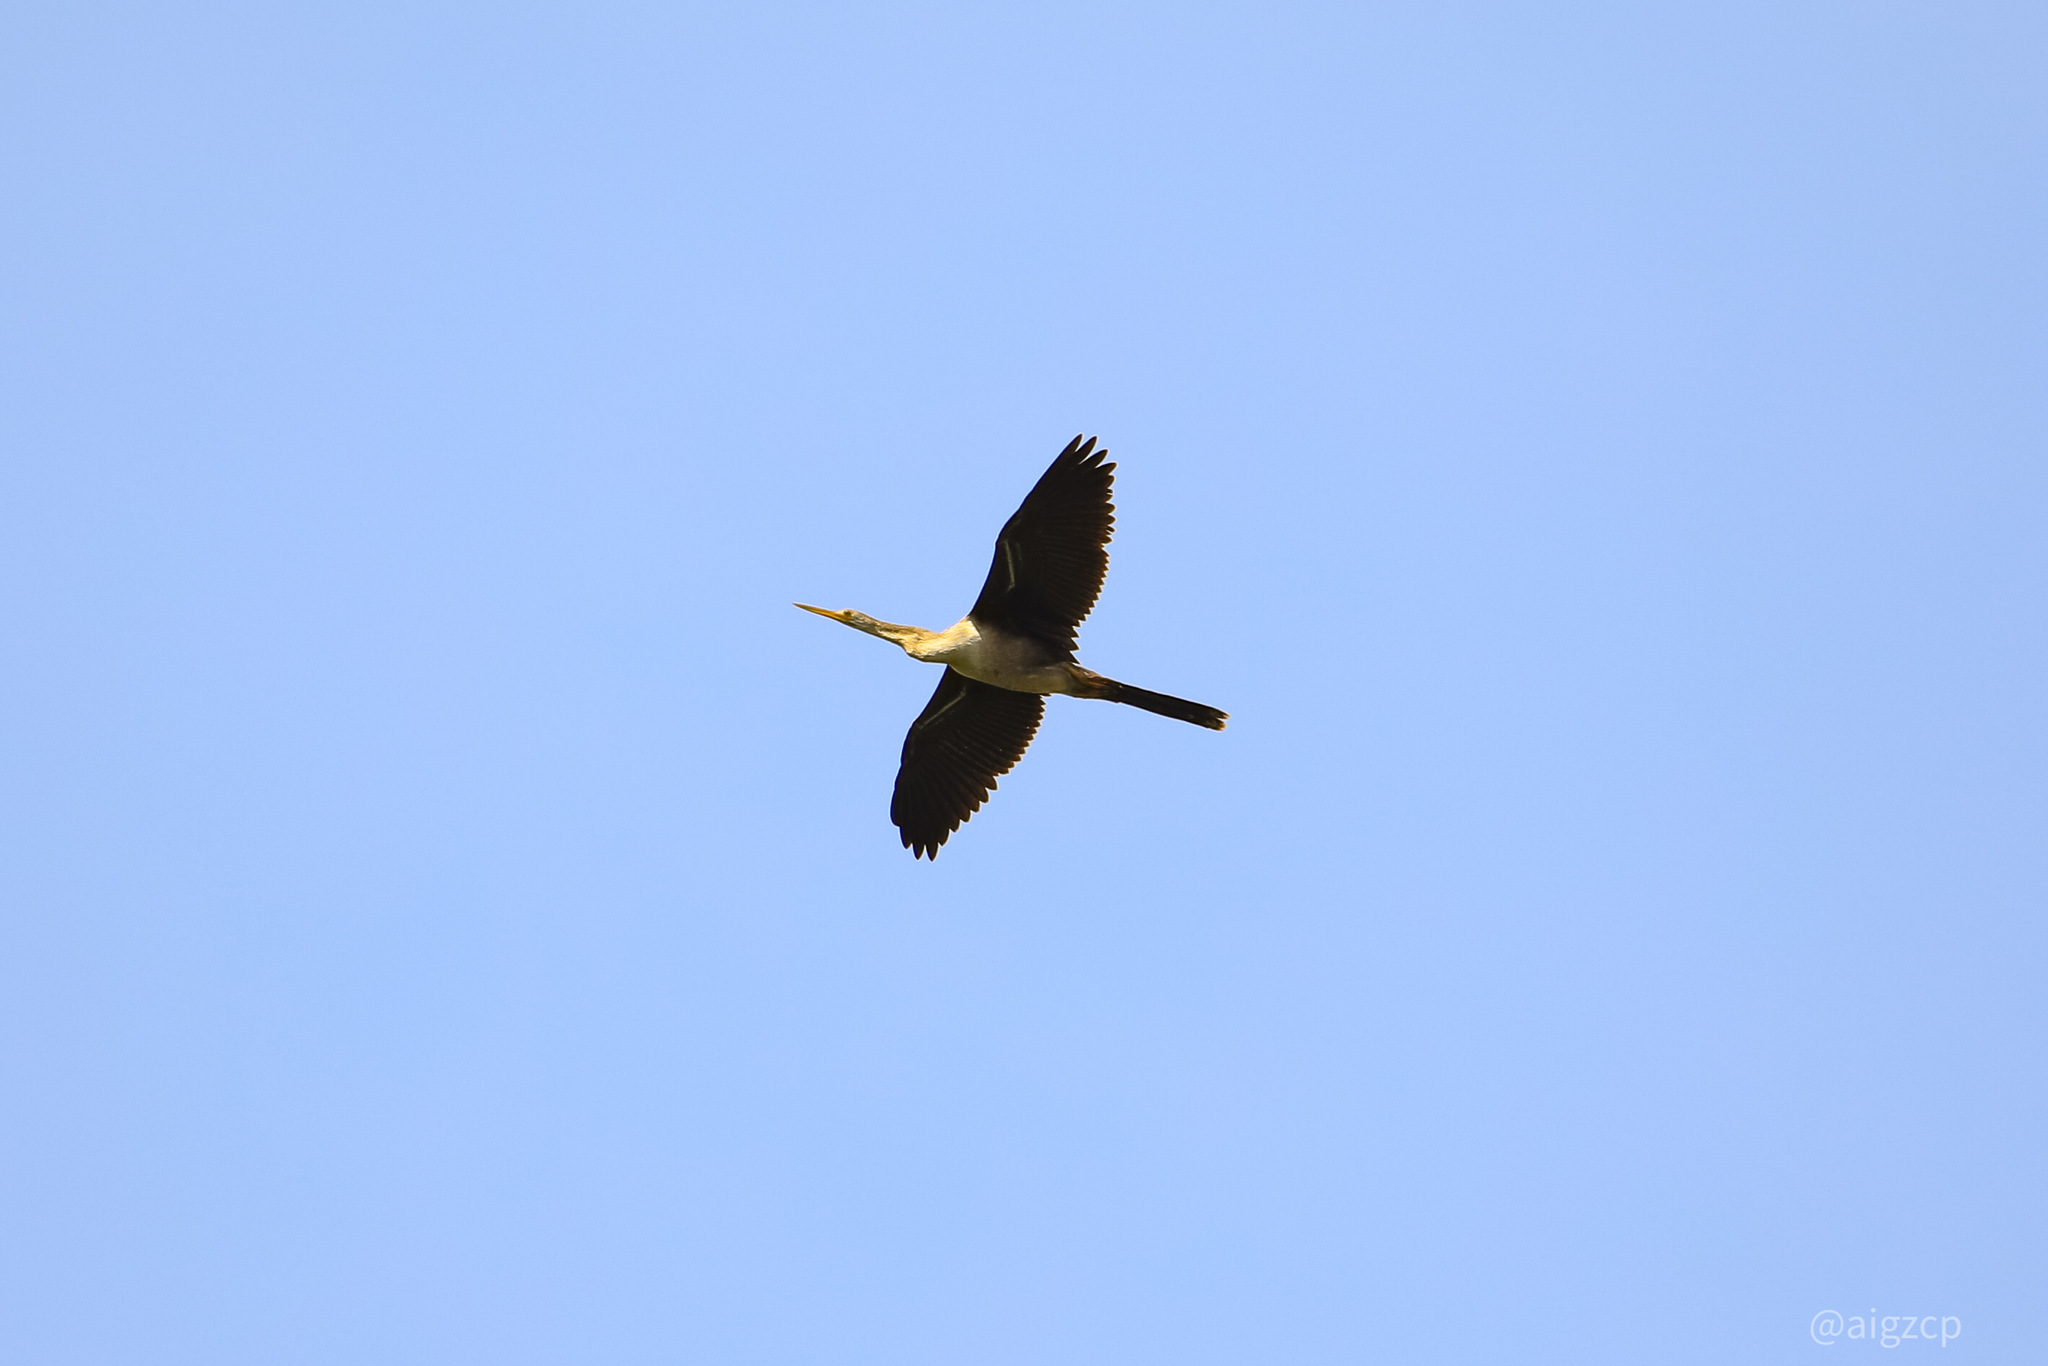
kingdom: Animalia
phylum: Chordata
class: Aves
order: Suliformes
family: Anhingidae
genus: Anhinga
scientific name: Anhinga anhinga
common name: Anhinga
